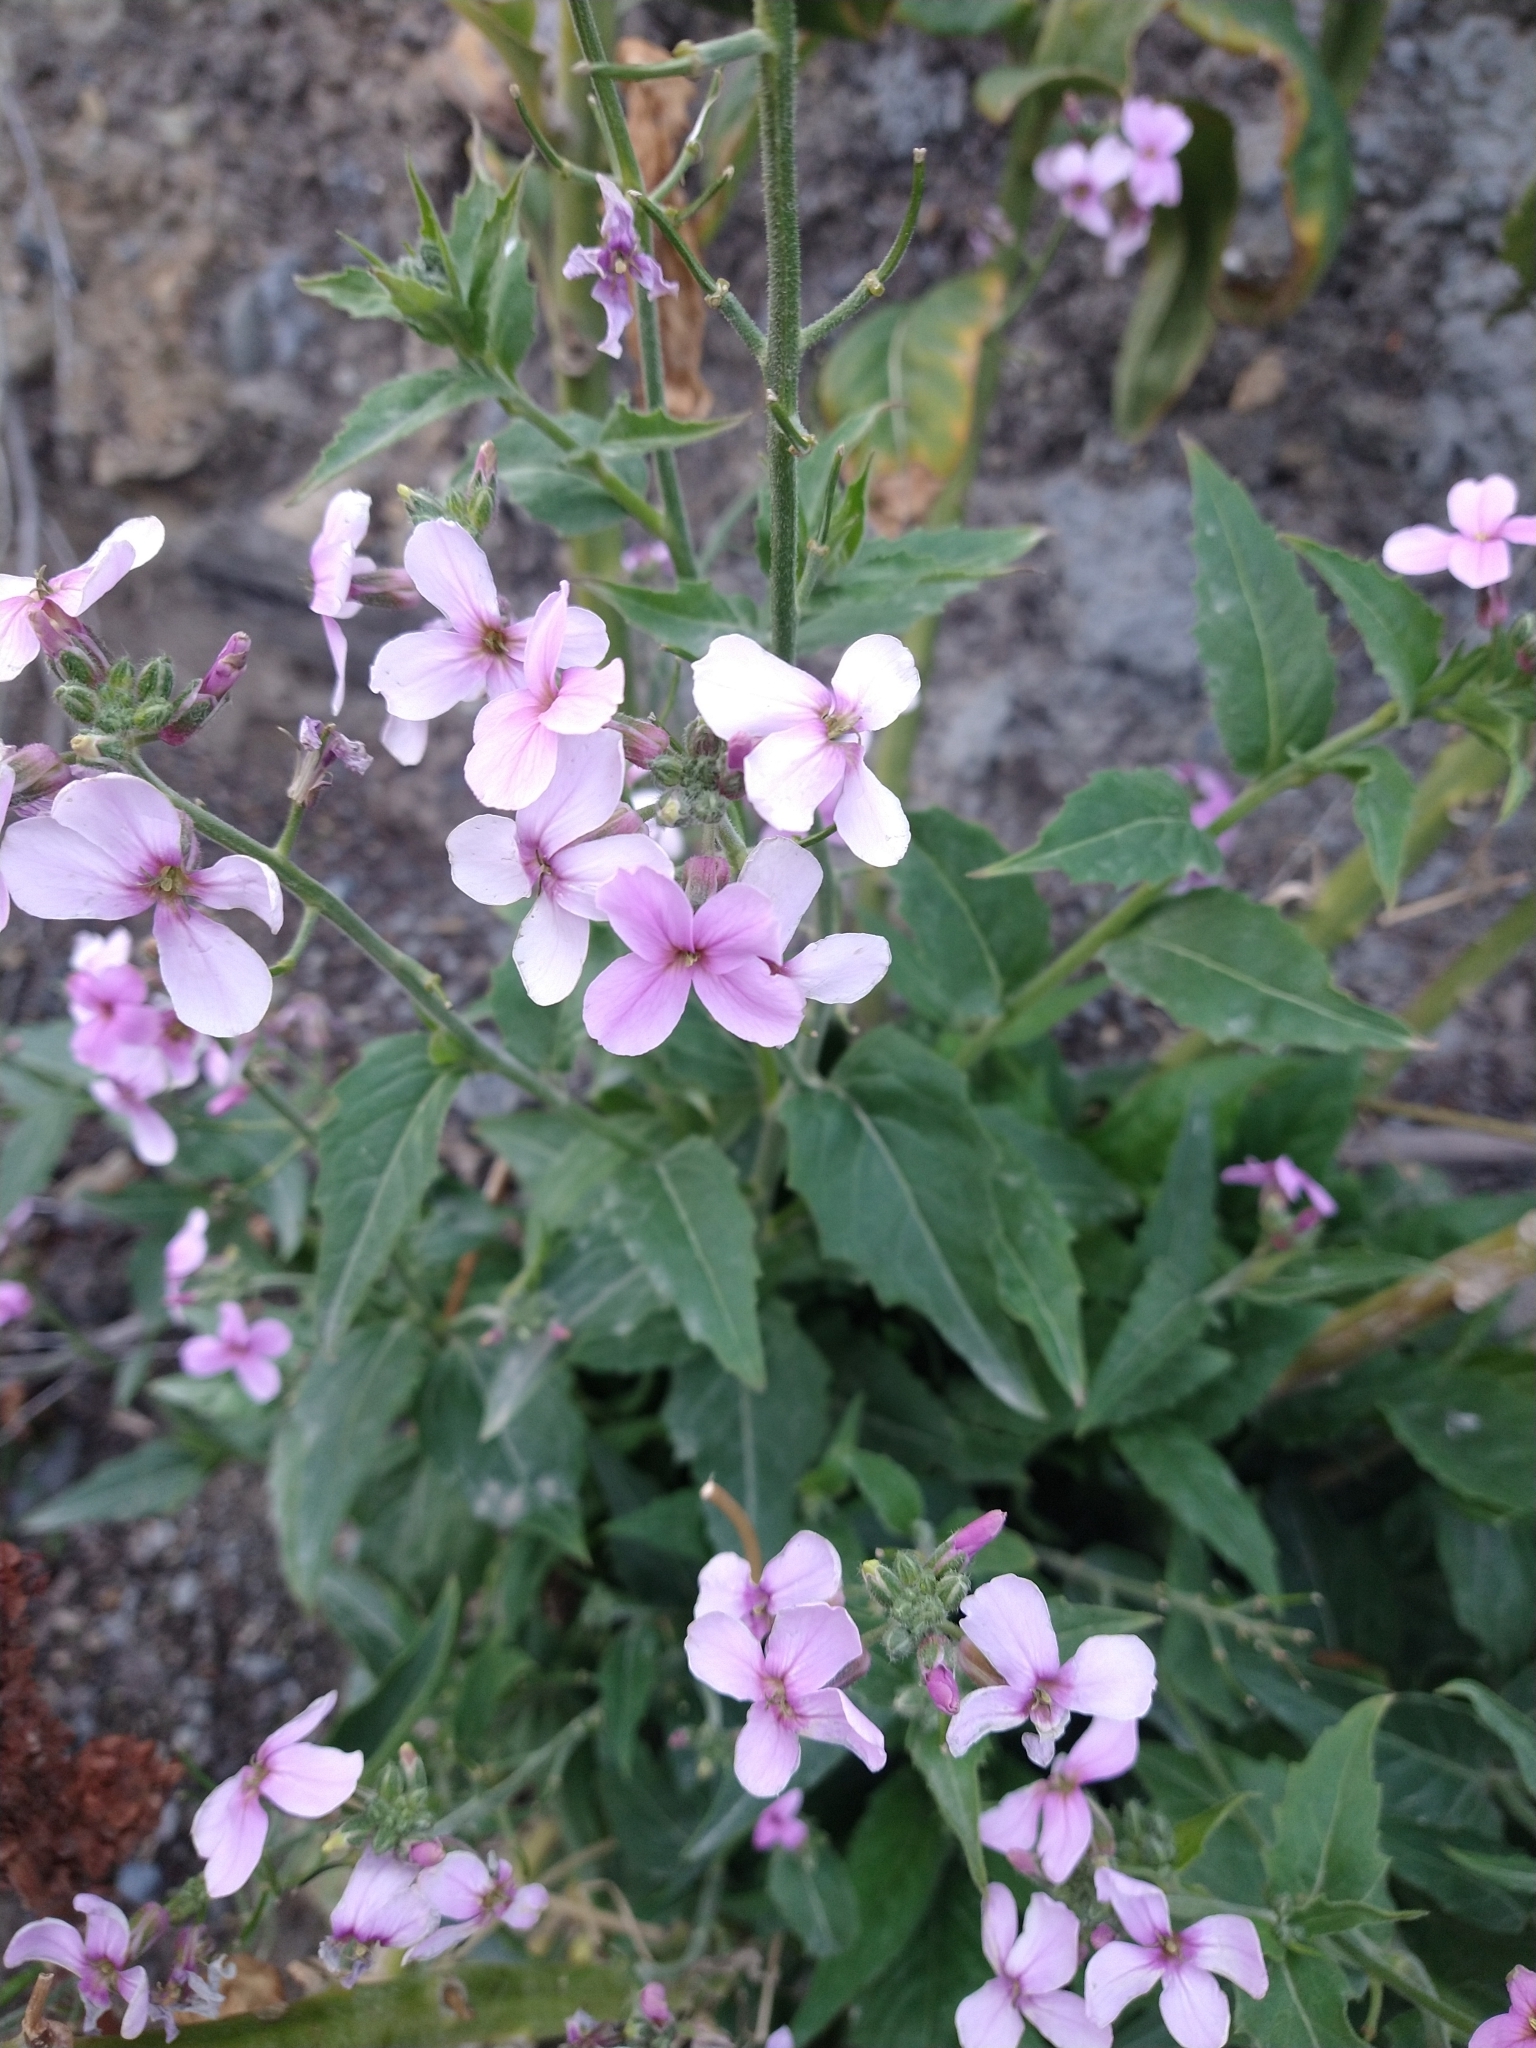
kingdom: Plantae
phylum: Tracheophyta
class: Magnoliopsida
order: Brassicales
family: Brassicaceae
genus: Hesperis
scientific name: Hesperis matronalis
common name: Dame's-violet
